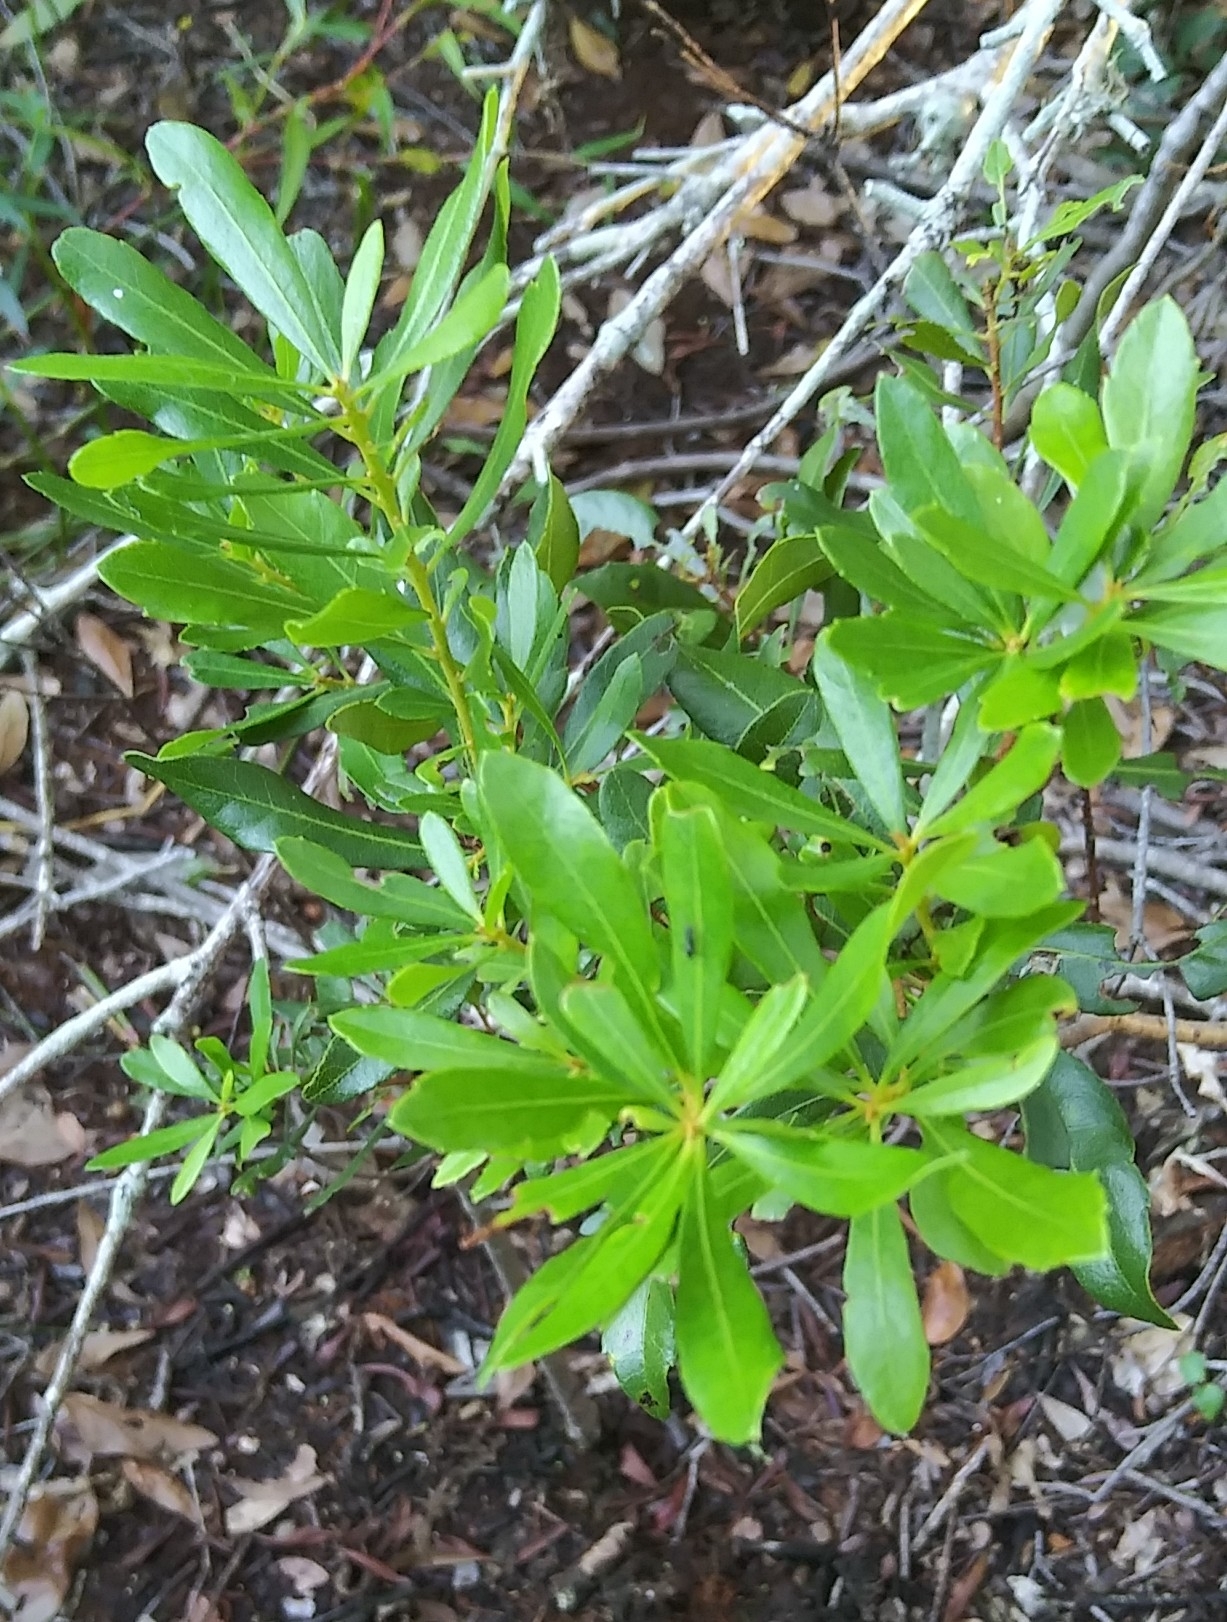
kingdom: Plantae
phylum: Tracheophyta
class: Magnoliopsida
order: Fagales
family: Myricaceae
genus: Morella
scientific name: Morella cerifera
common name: Wax myrtle
